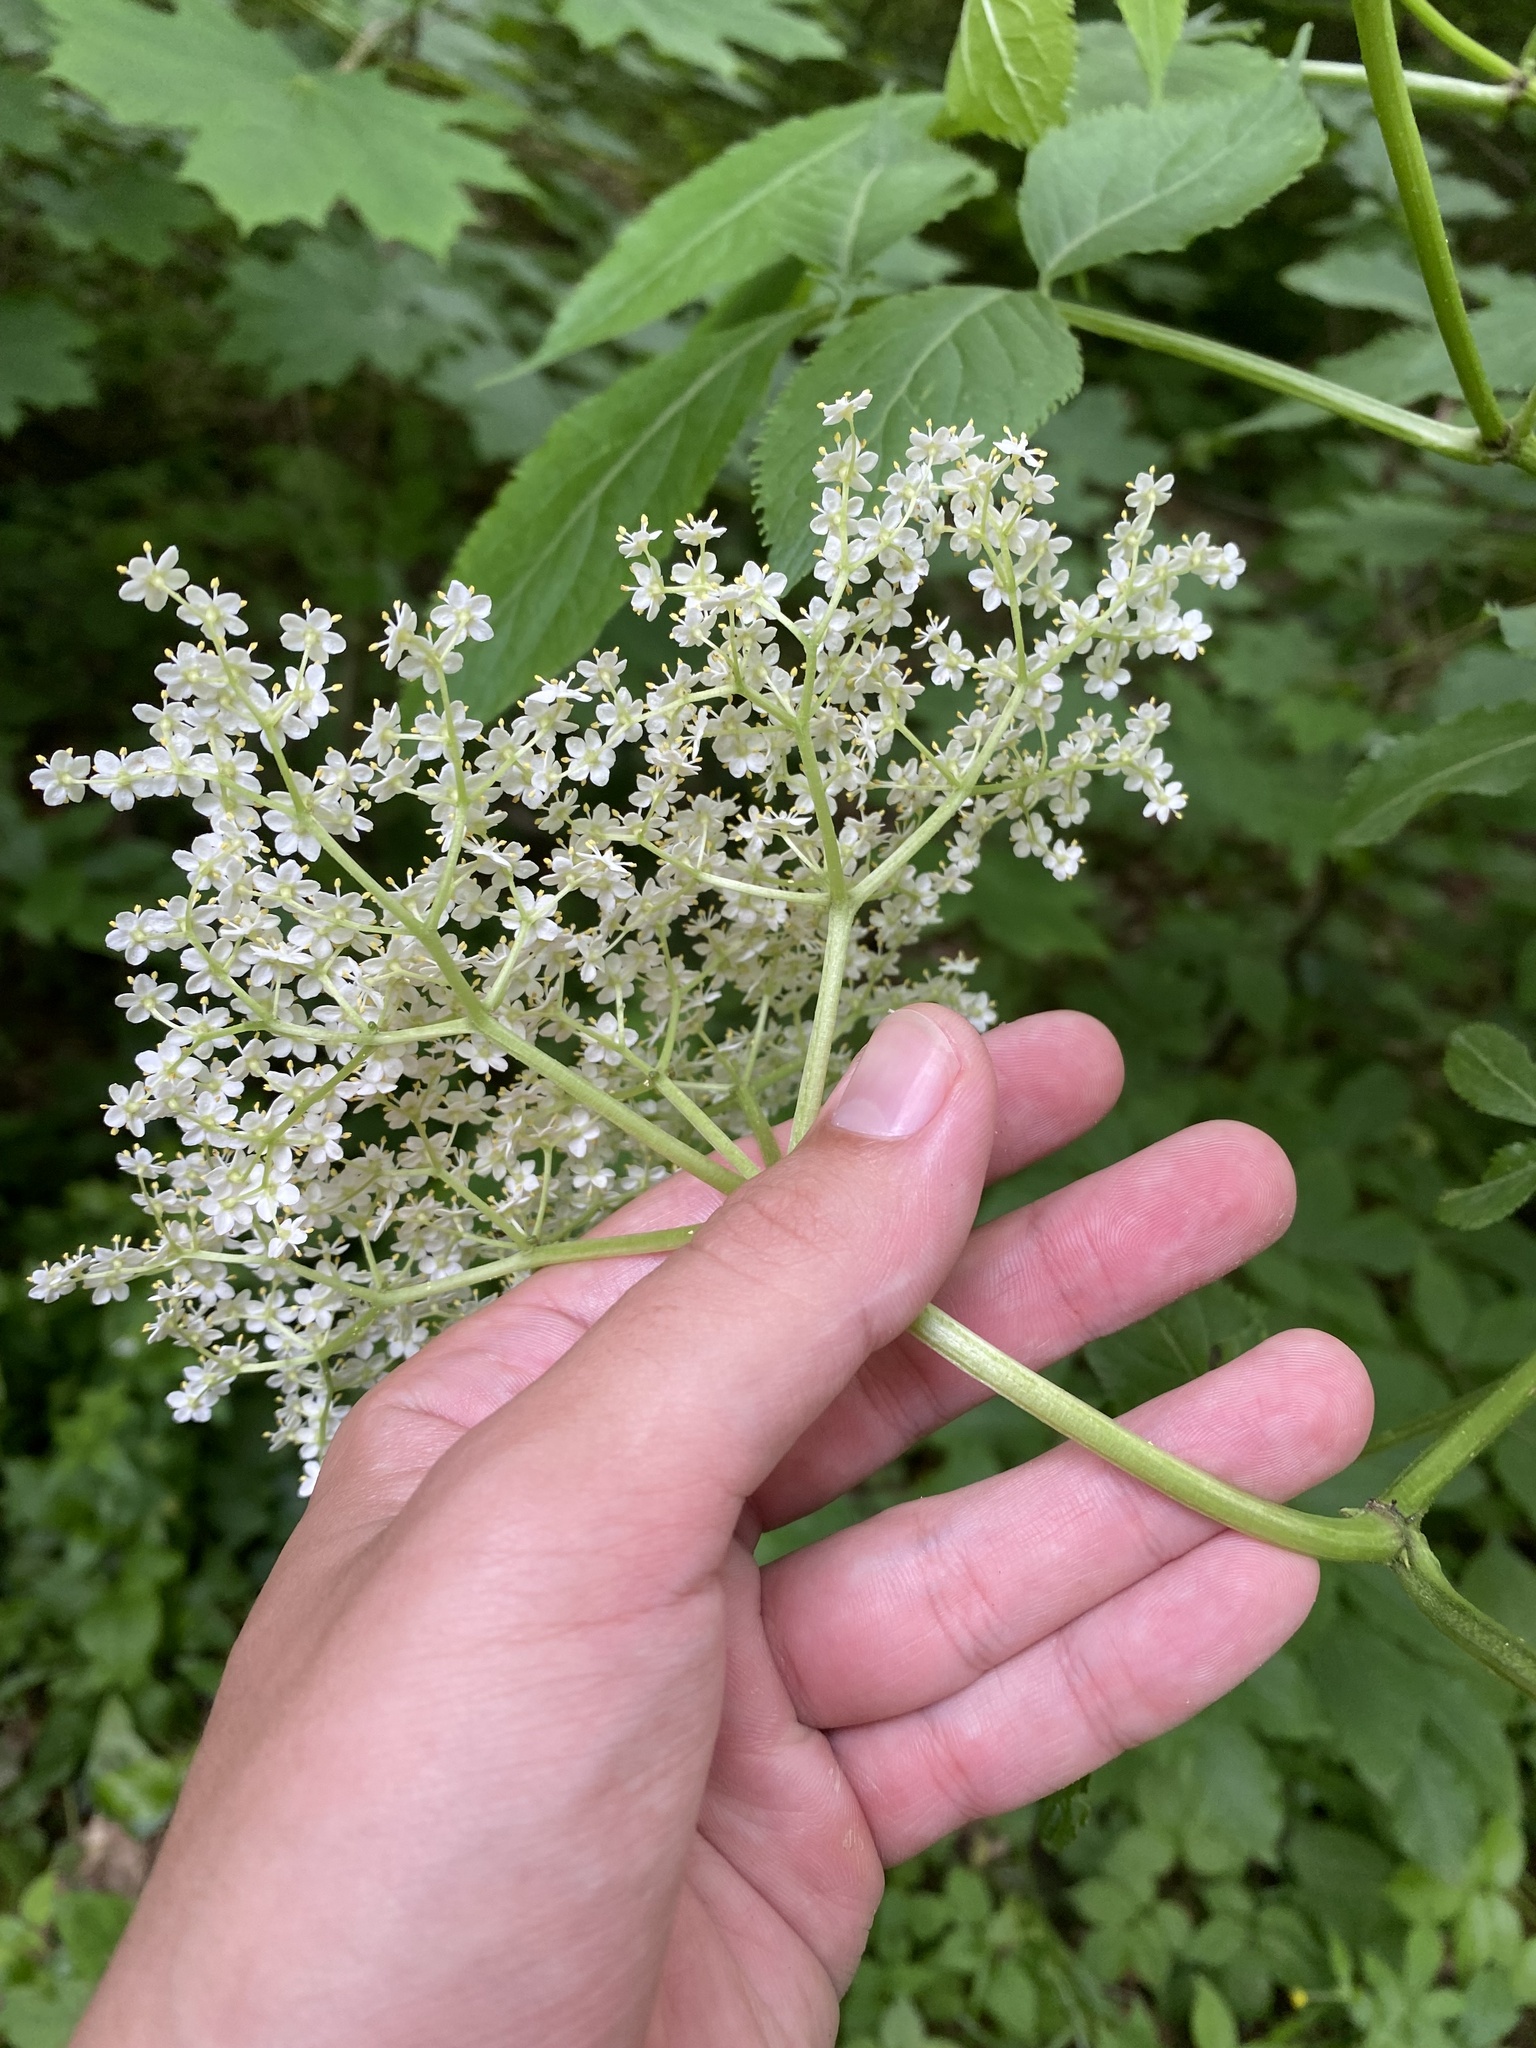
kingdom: Plantae
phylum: Tracheophyta
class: Magnoliopsida
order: Dipsacales
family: Viburnaceae
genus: Sambucus
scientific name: Sambucus nigra
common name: Elder
